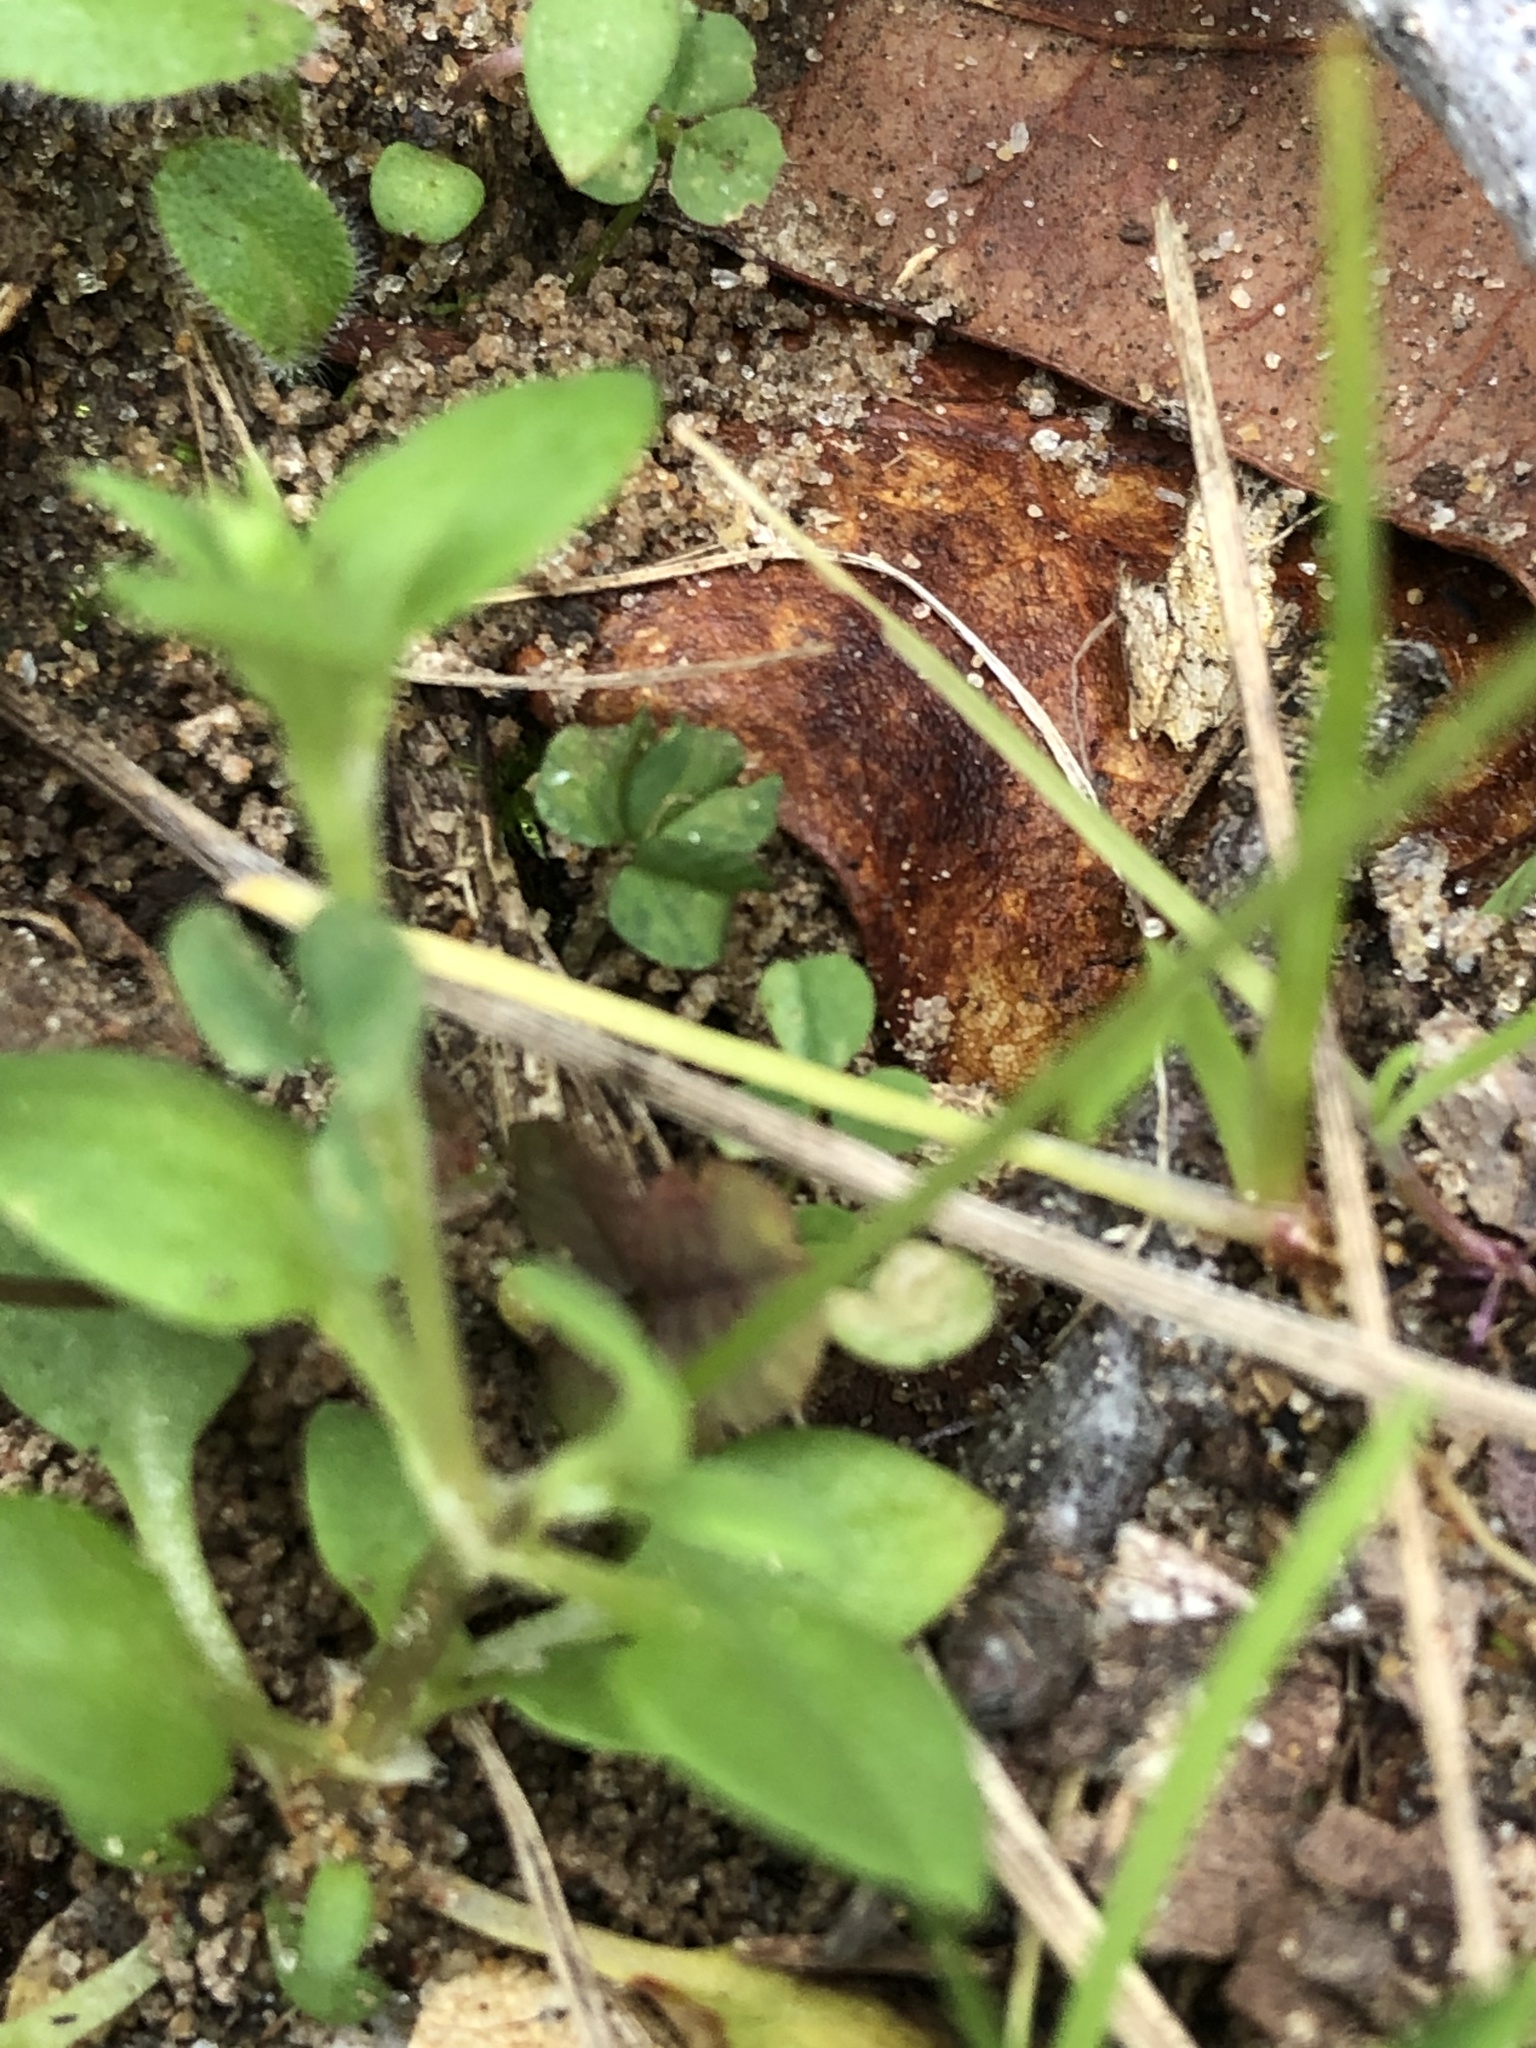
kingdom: Plantae
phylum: Tracheophyta
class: Magnoliopsida
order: Gentianales
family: Rubiaceae
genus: Houstonia
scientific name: Houstonia pusilla
